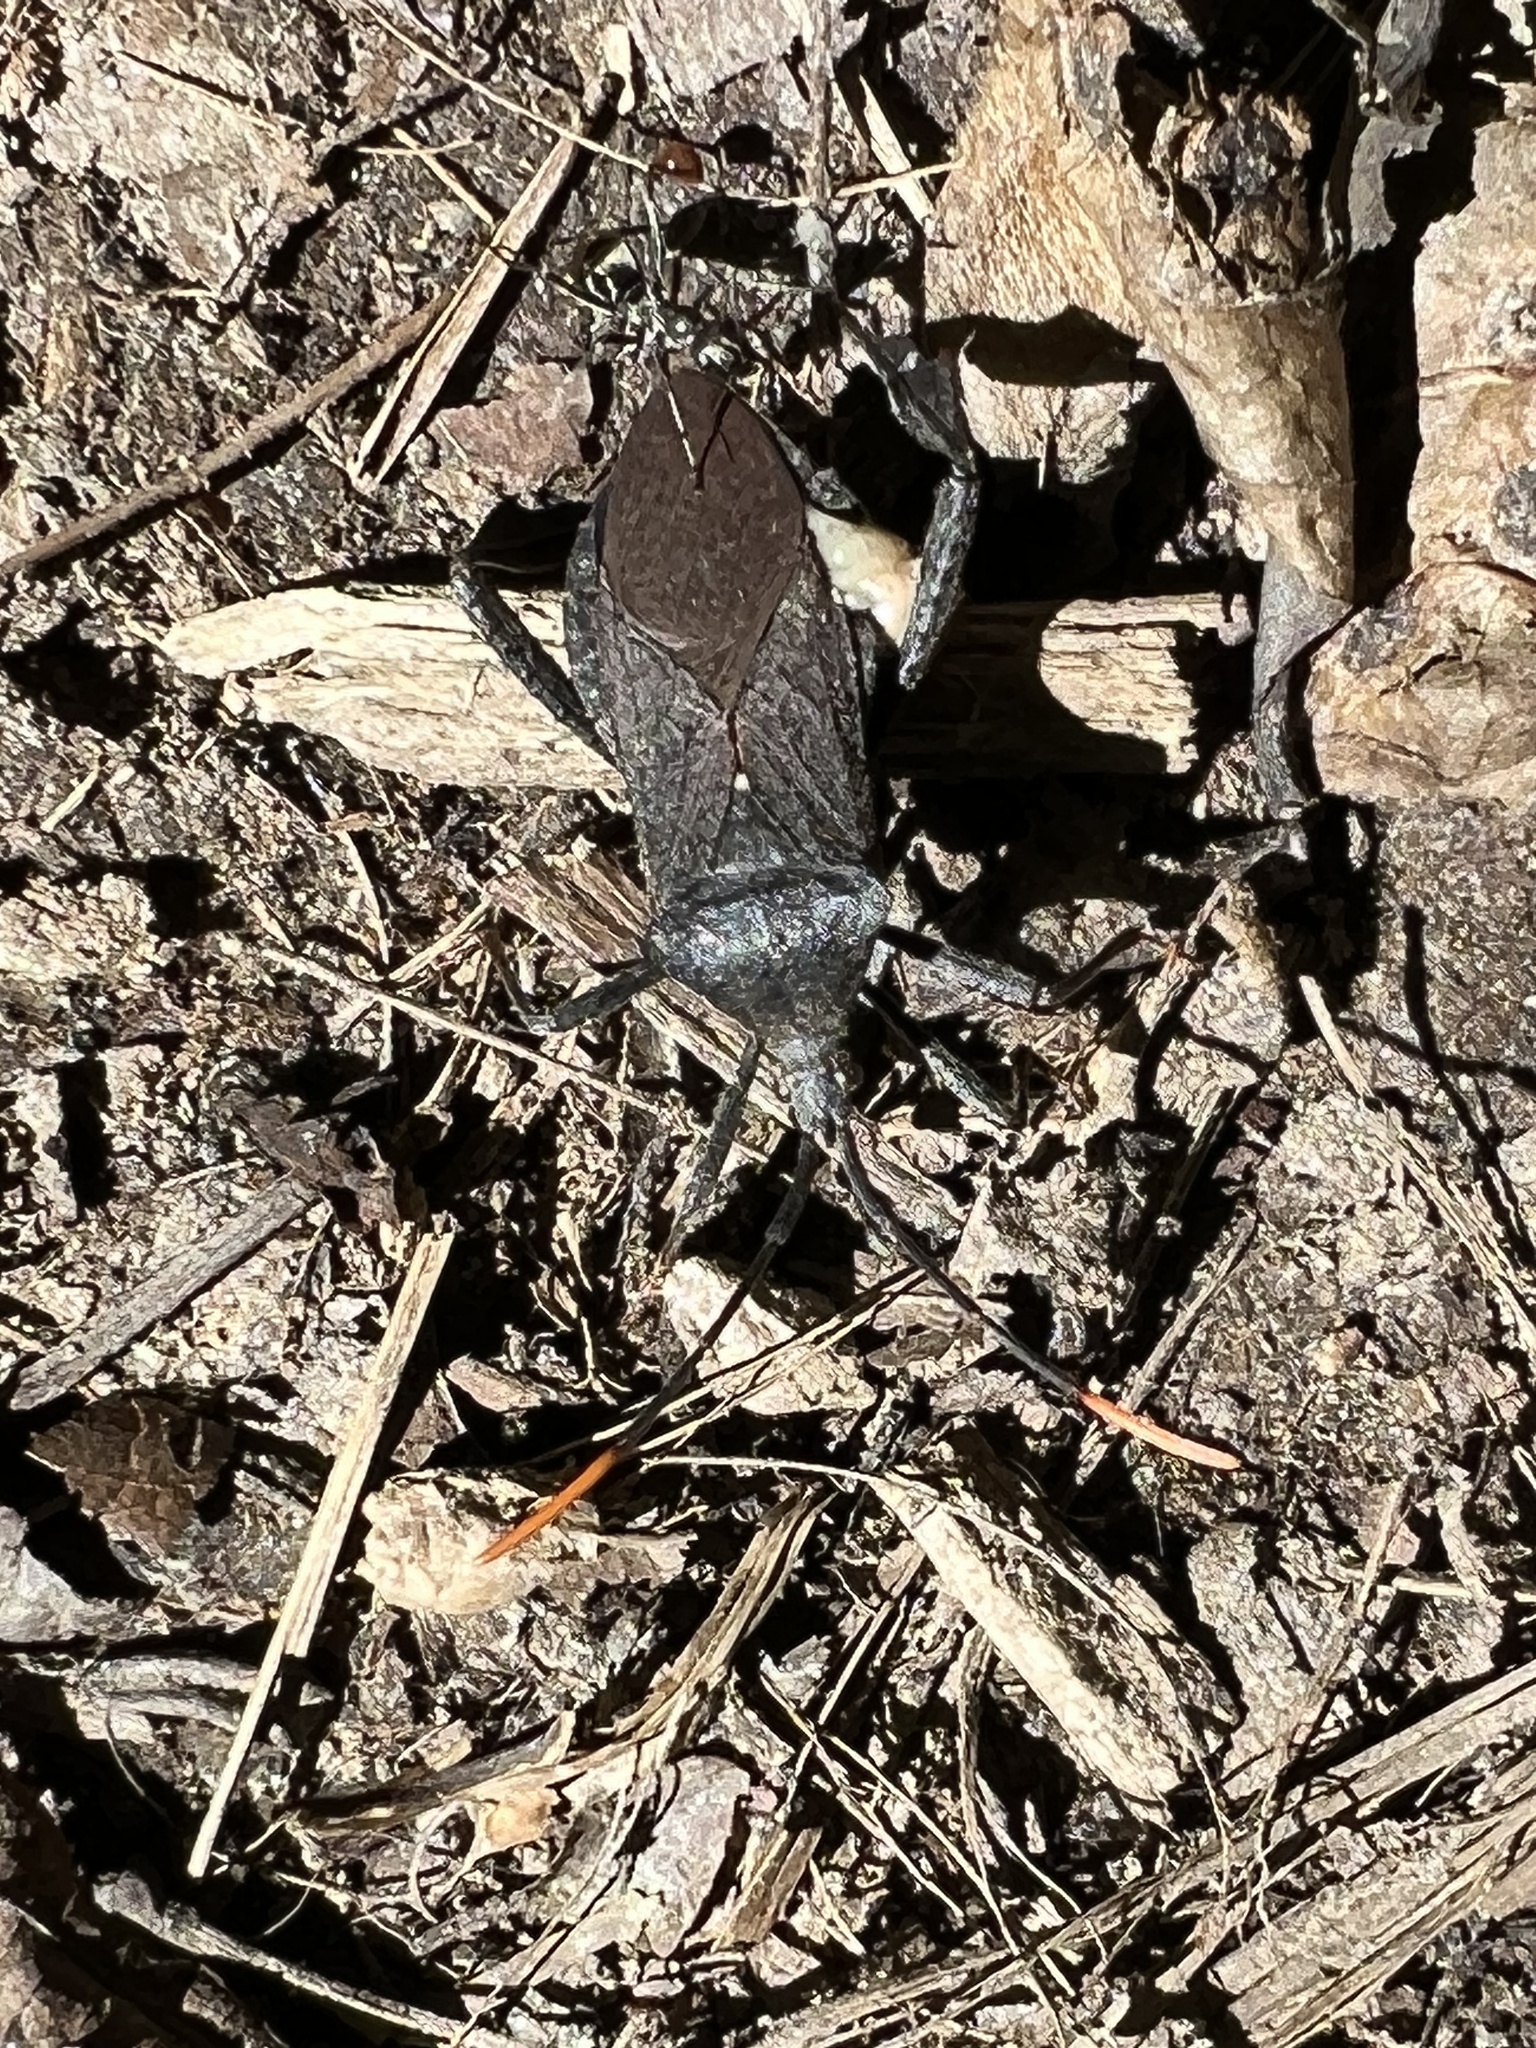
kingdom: Animalia
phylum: Arthropoda
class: Insecta
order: Hemiptera
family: Coreidae
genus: Acanthocephala
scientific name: Acanthocephala terminalis
